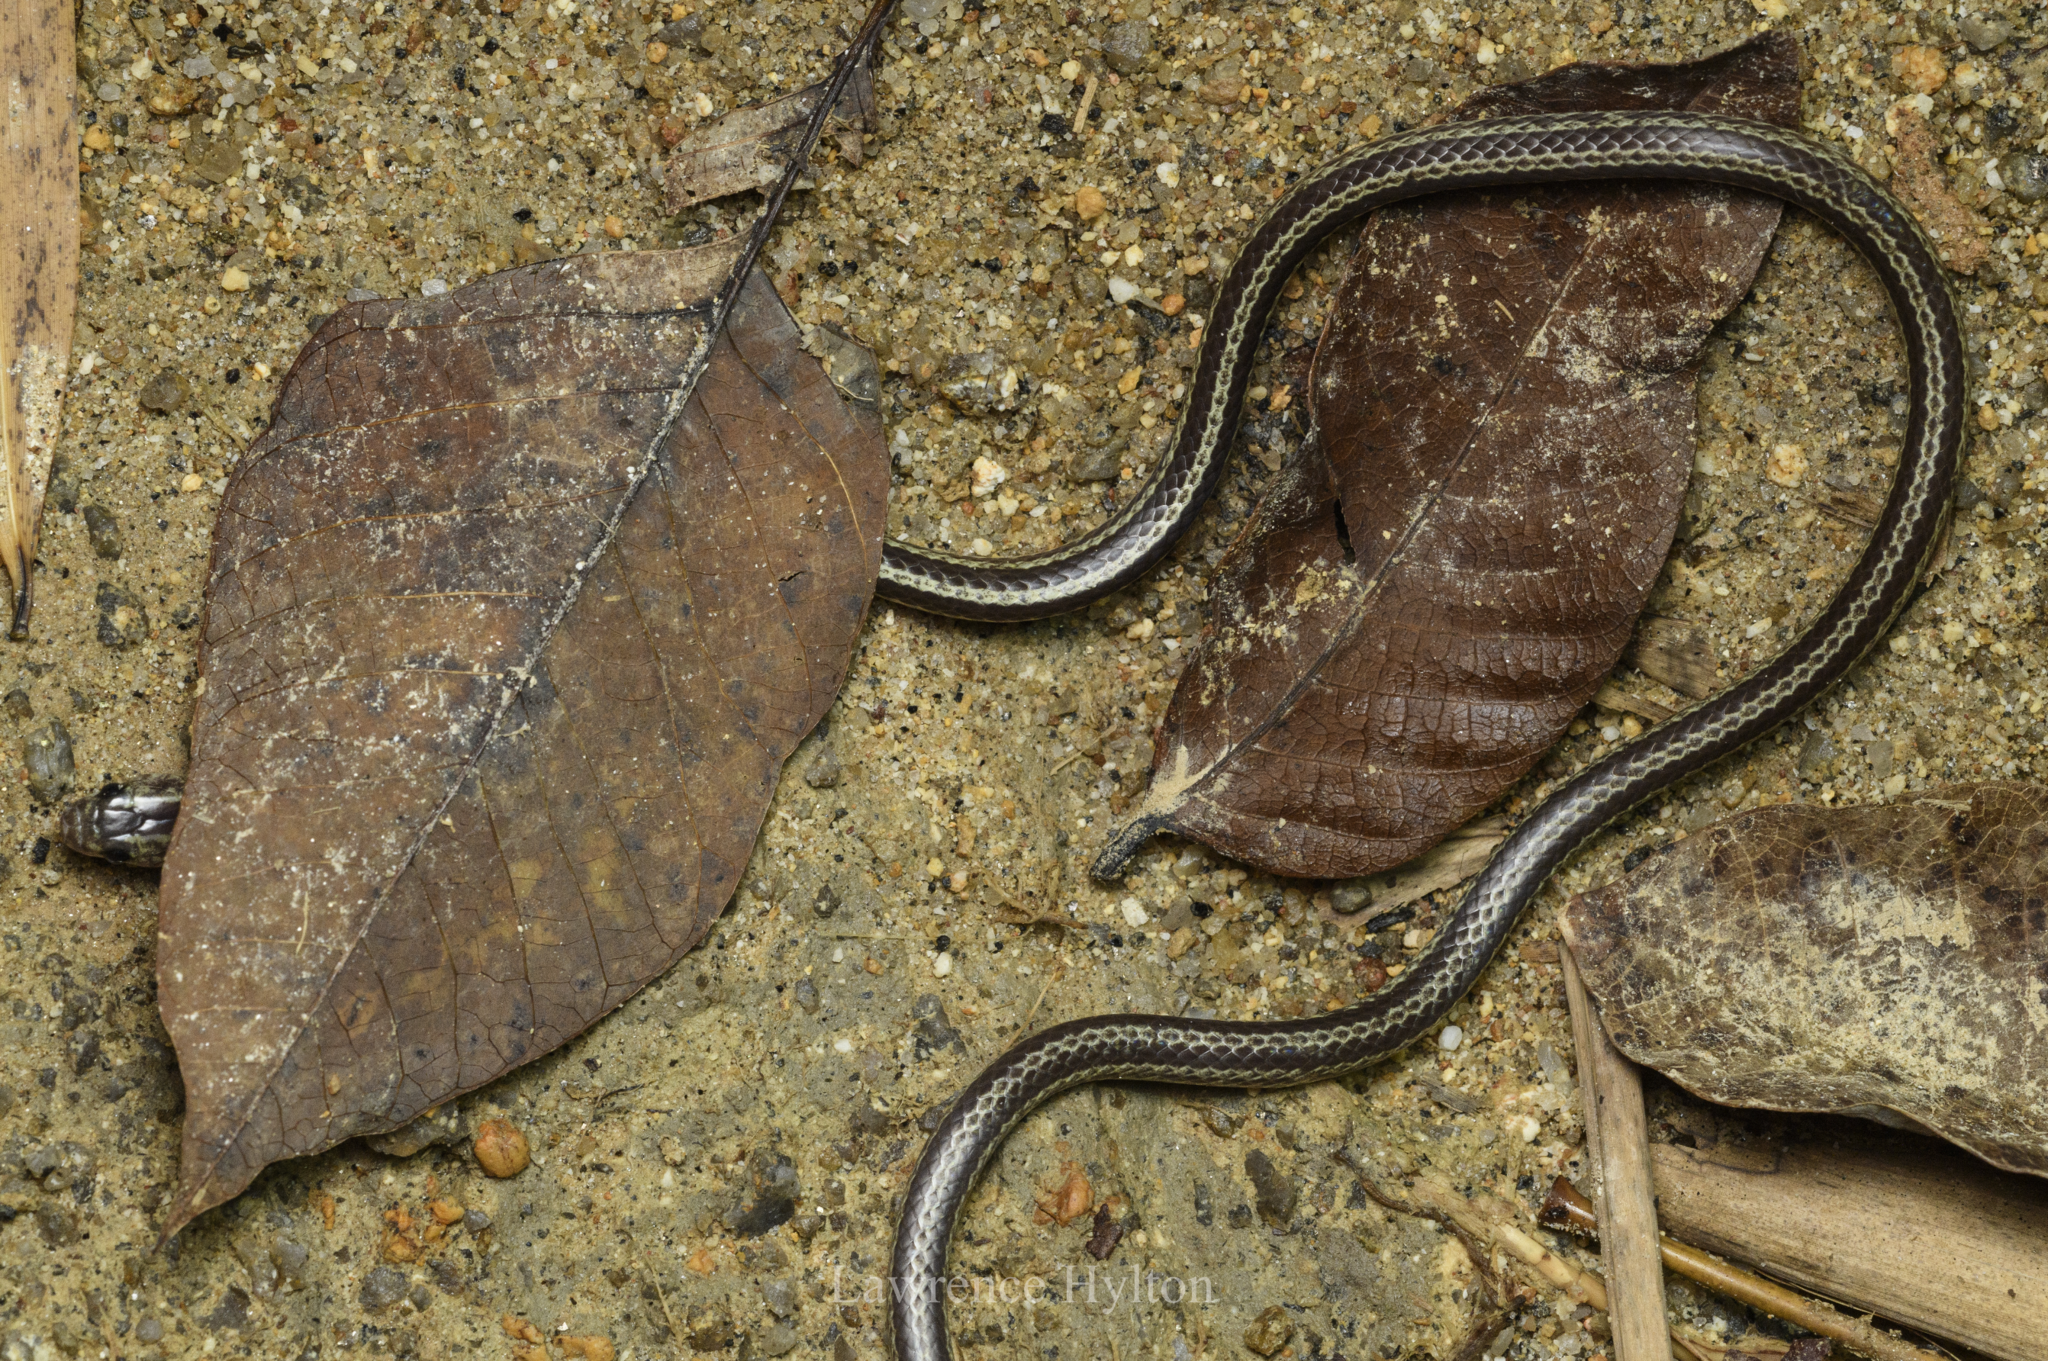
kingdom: Animalia
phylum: Chordata
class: Squamata
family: Colubridae
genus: Lycodon
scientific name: Lycodon subannulatus
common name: Malayan bridal snake
